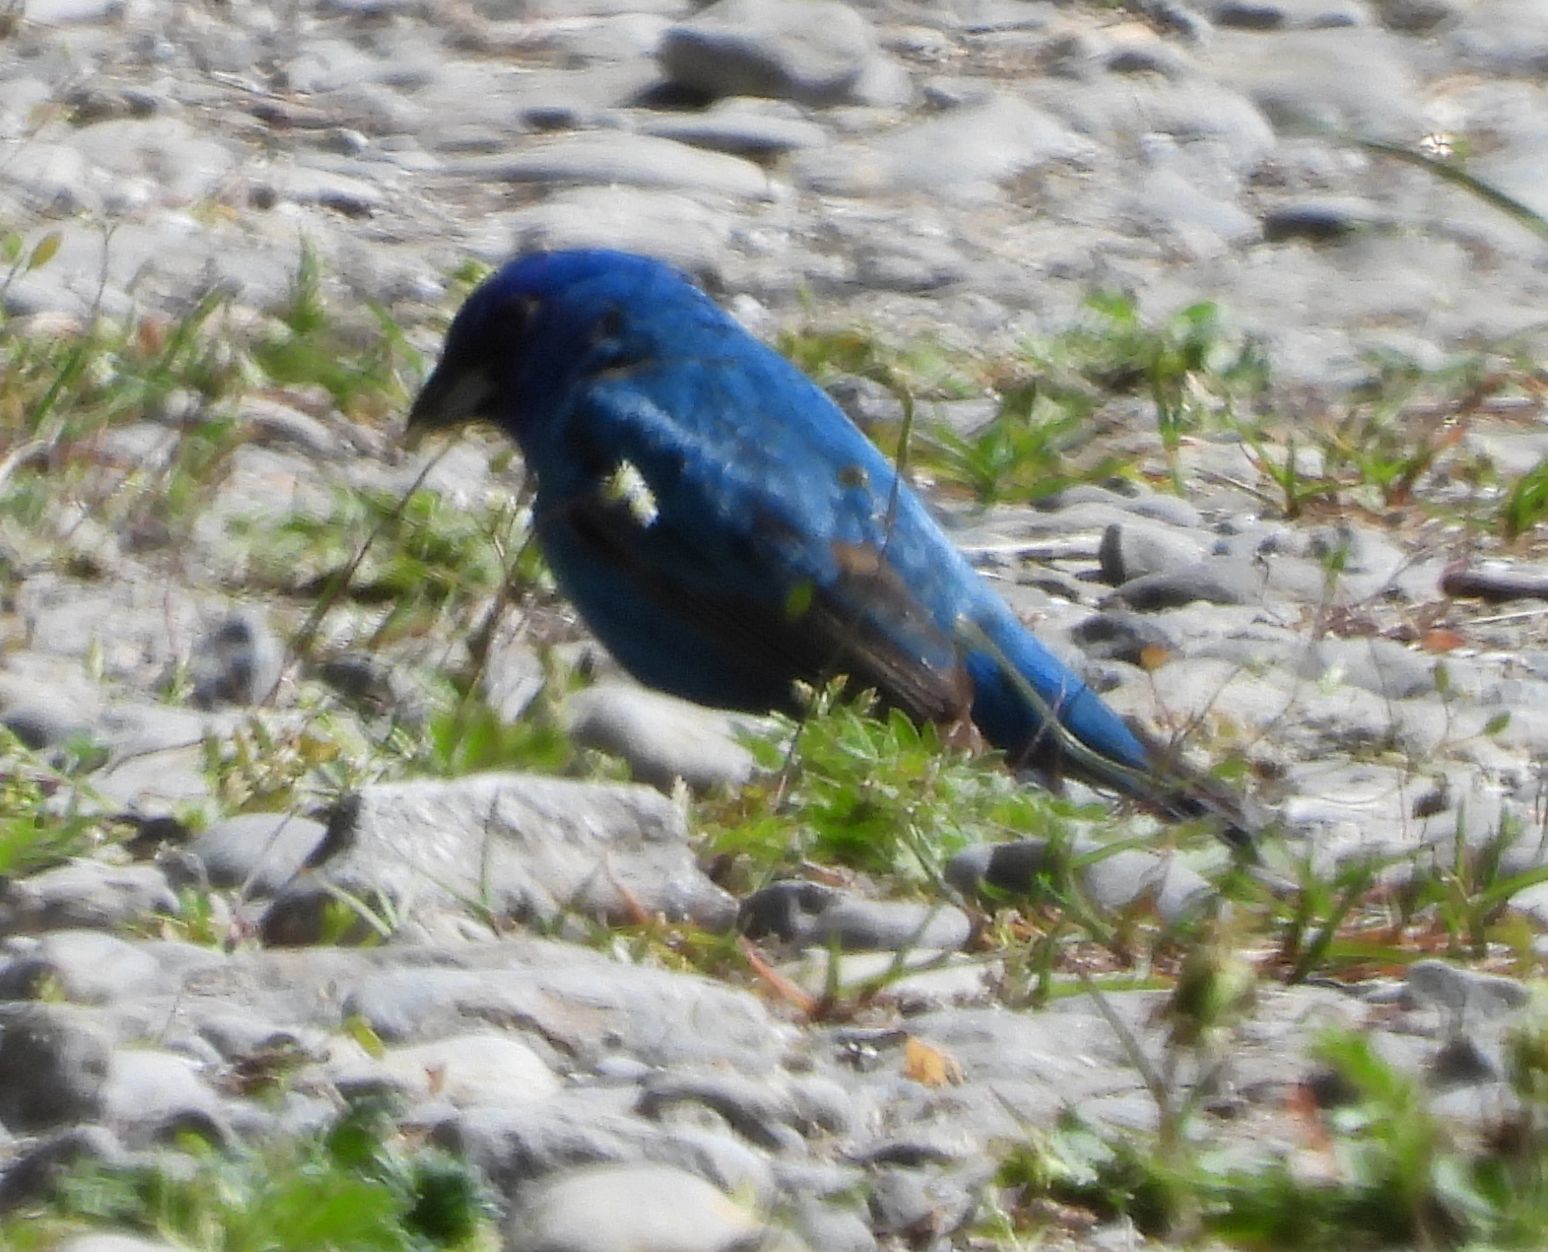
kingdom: Animalia
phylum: Chordata
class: Aves
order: Passeriformes
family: Cardinalidae
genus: Passerina
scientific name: Passerina cyanea
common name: Indigo bunting
